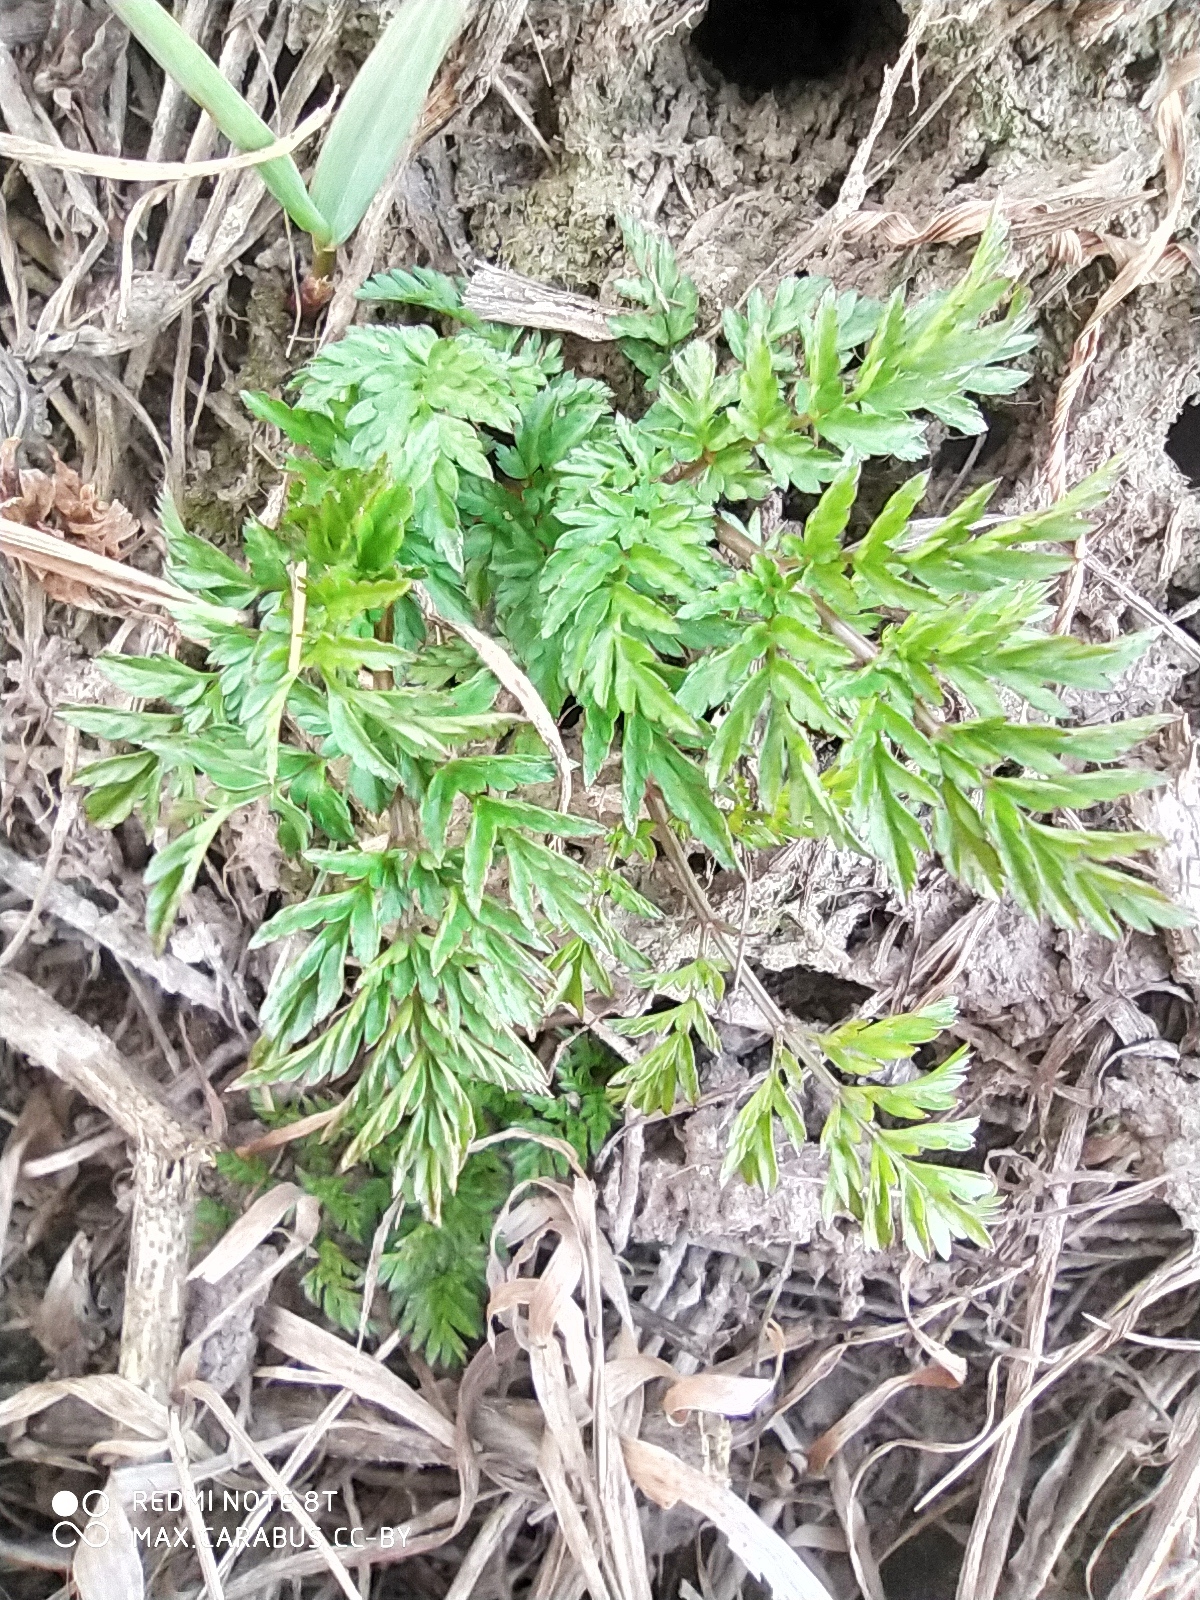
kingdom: Plantae
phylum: Tracheophyta
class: Magnoliopsida
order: Apiales
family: Apiaceae
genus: Anthriscus
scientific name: Anthriscus sylvestris
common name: Cow parsley
